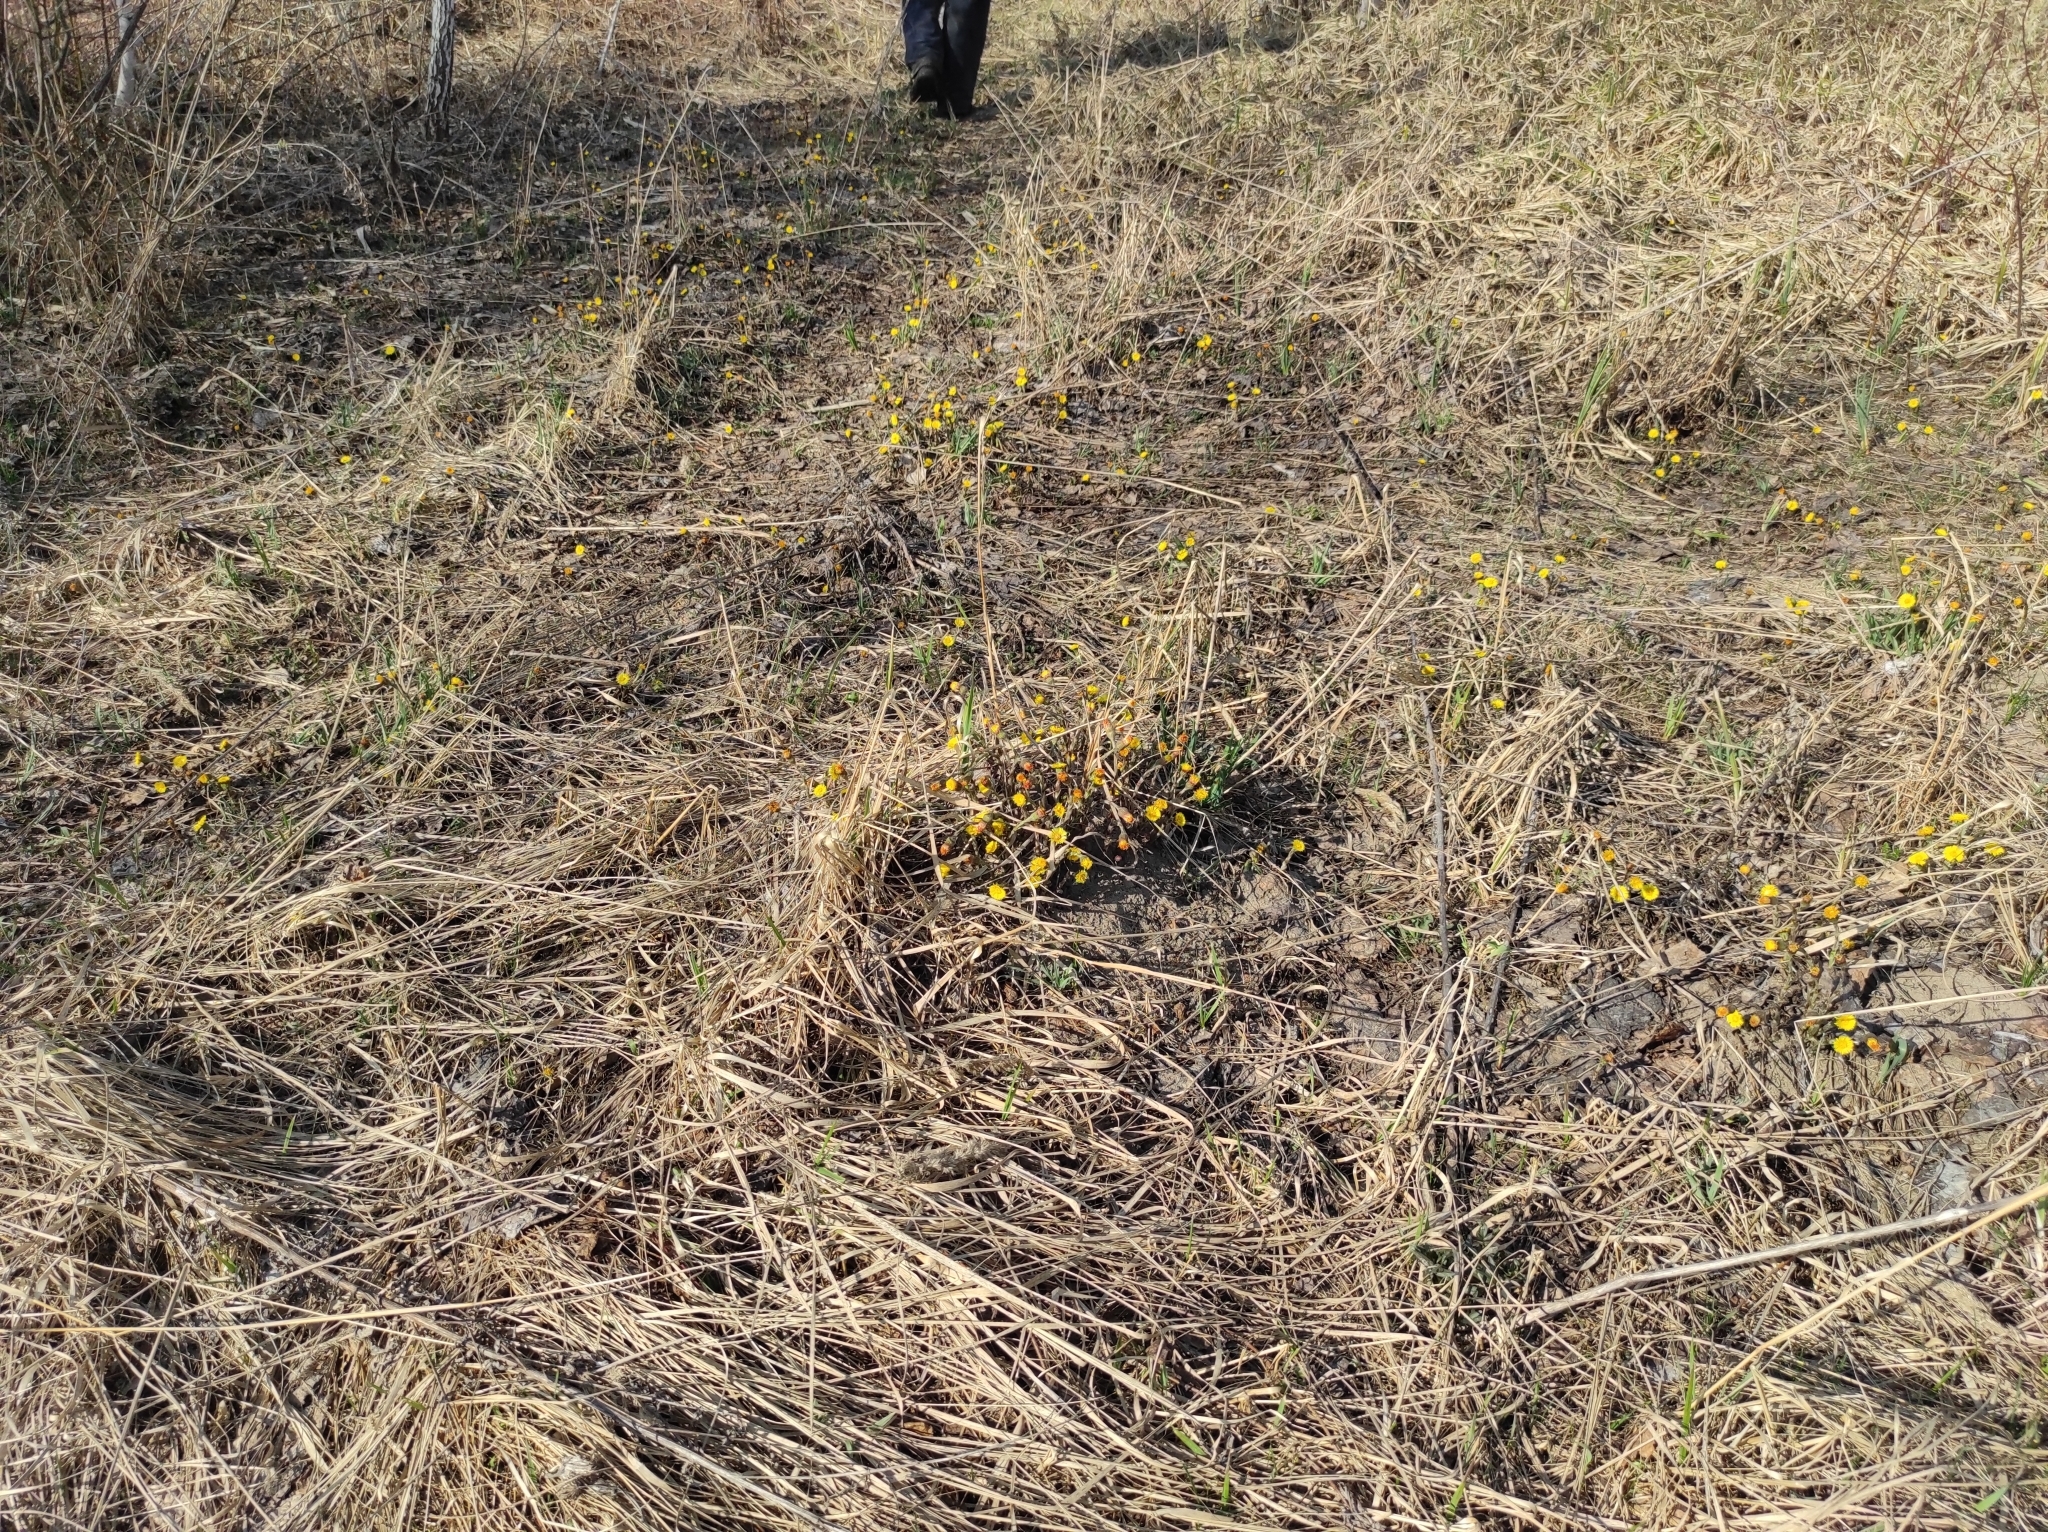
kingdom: Plantae
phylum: Tracheophyta
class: Magnoliopsida
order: Asterales
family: Asteraceae
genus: Tussilago
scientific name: Tussilago farfara
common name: Coltsfoot
